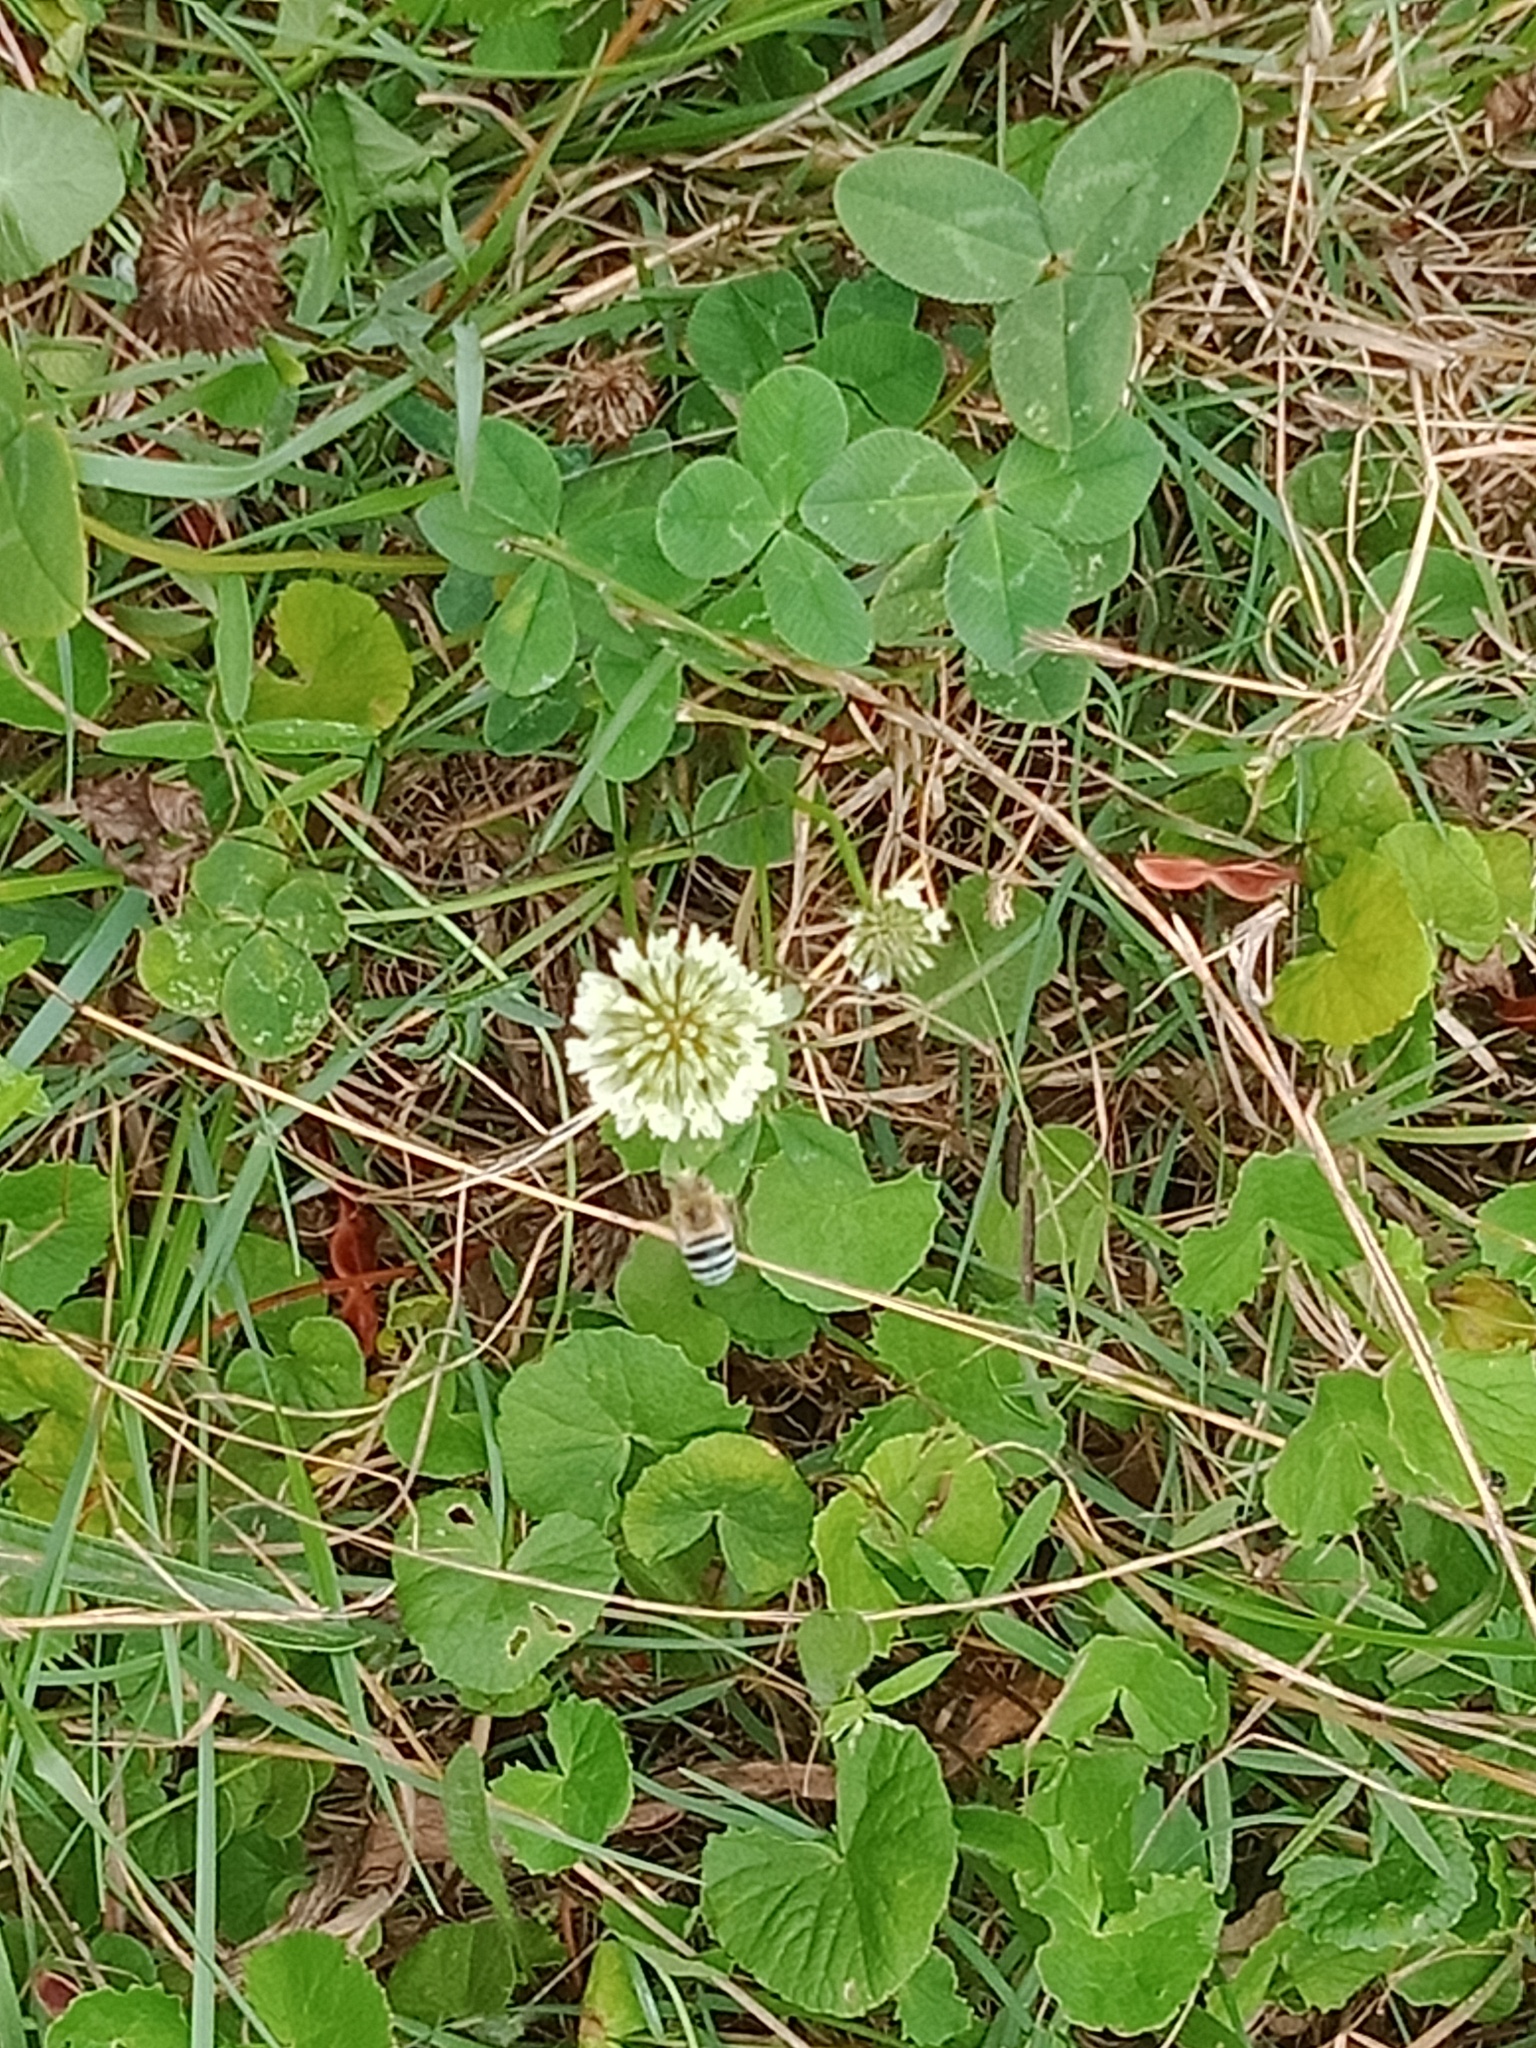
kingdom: Plantae
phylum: Tracheophyta
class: Magnoliopsida
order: Apiales
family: Apiaceae
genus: Centella
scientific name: Centella asiatica
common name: Spadeleaf
